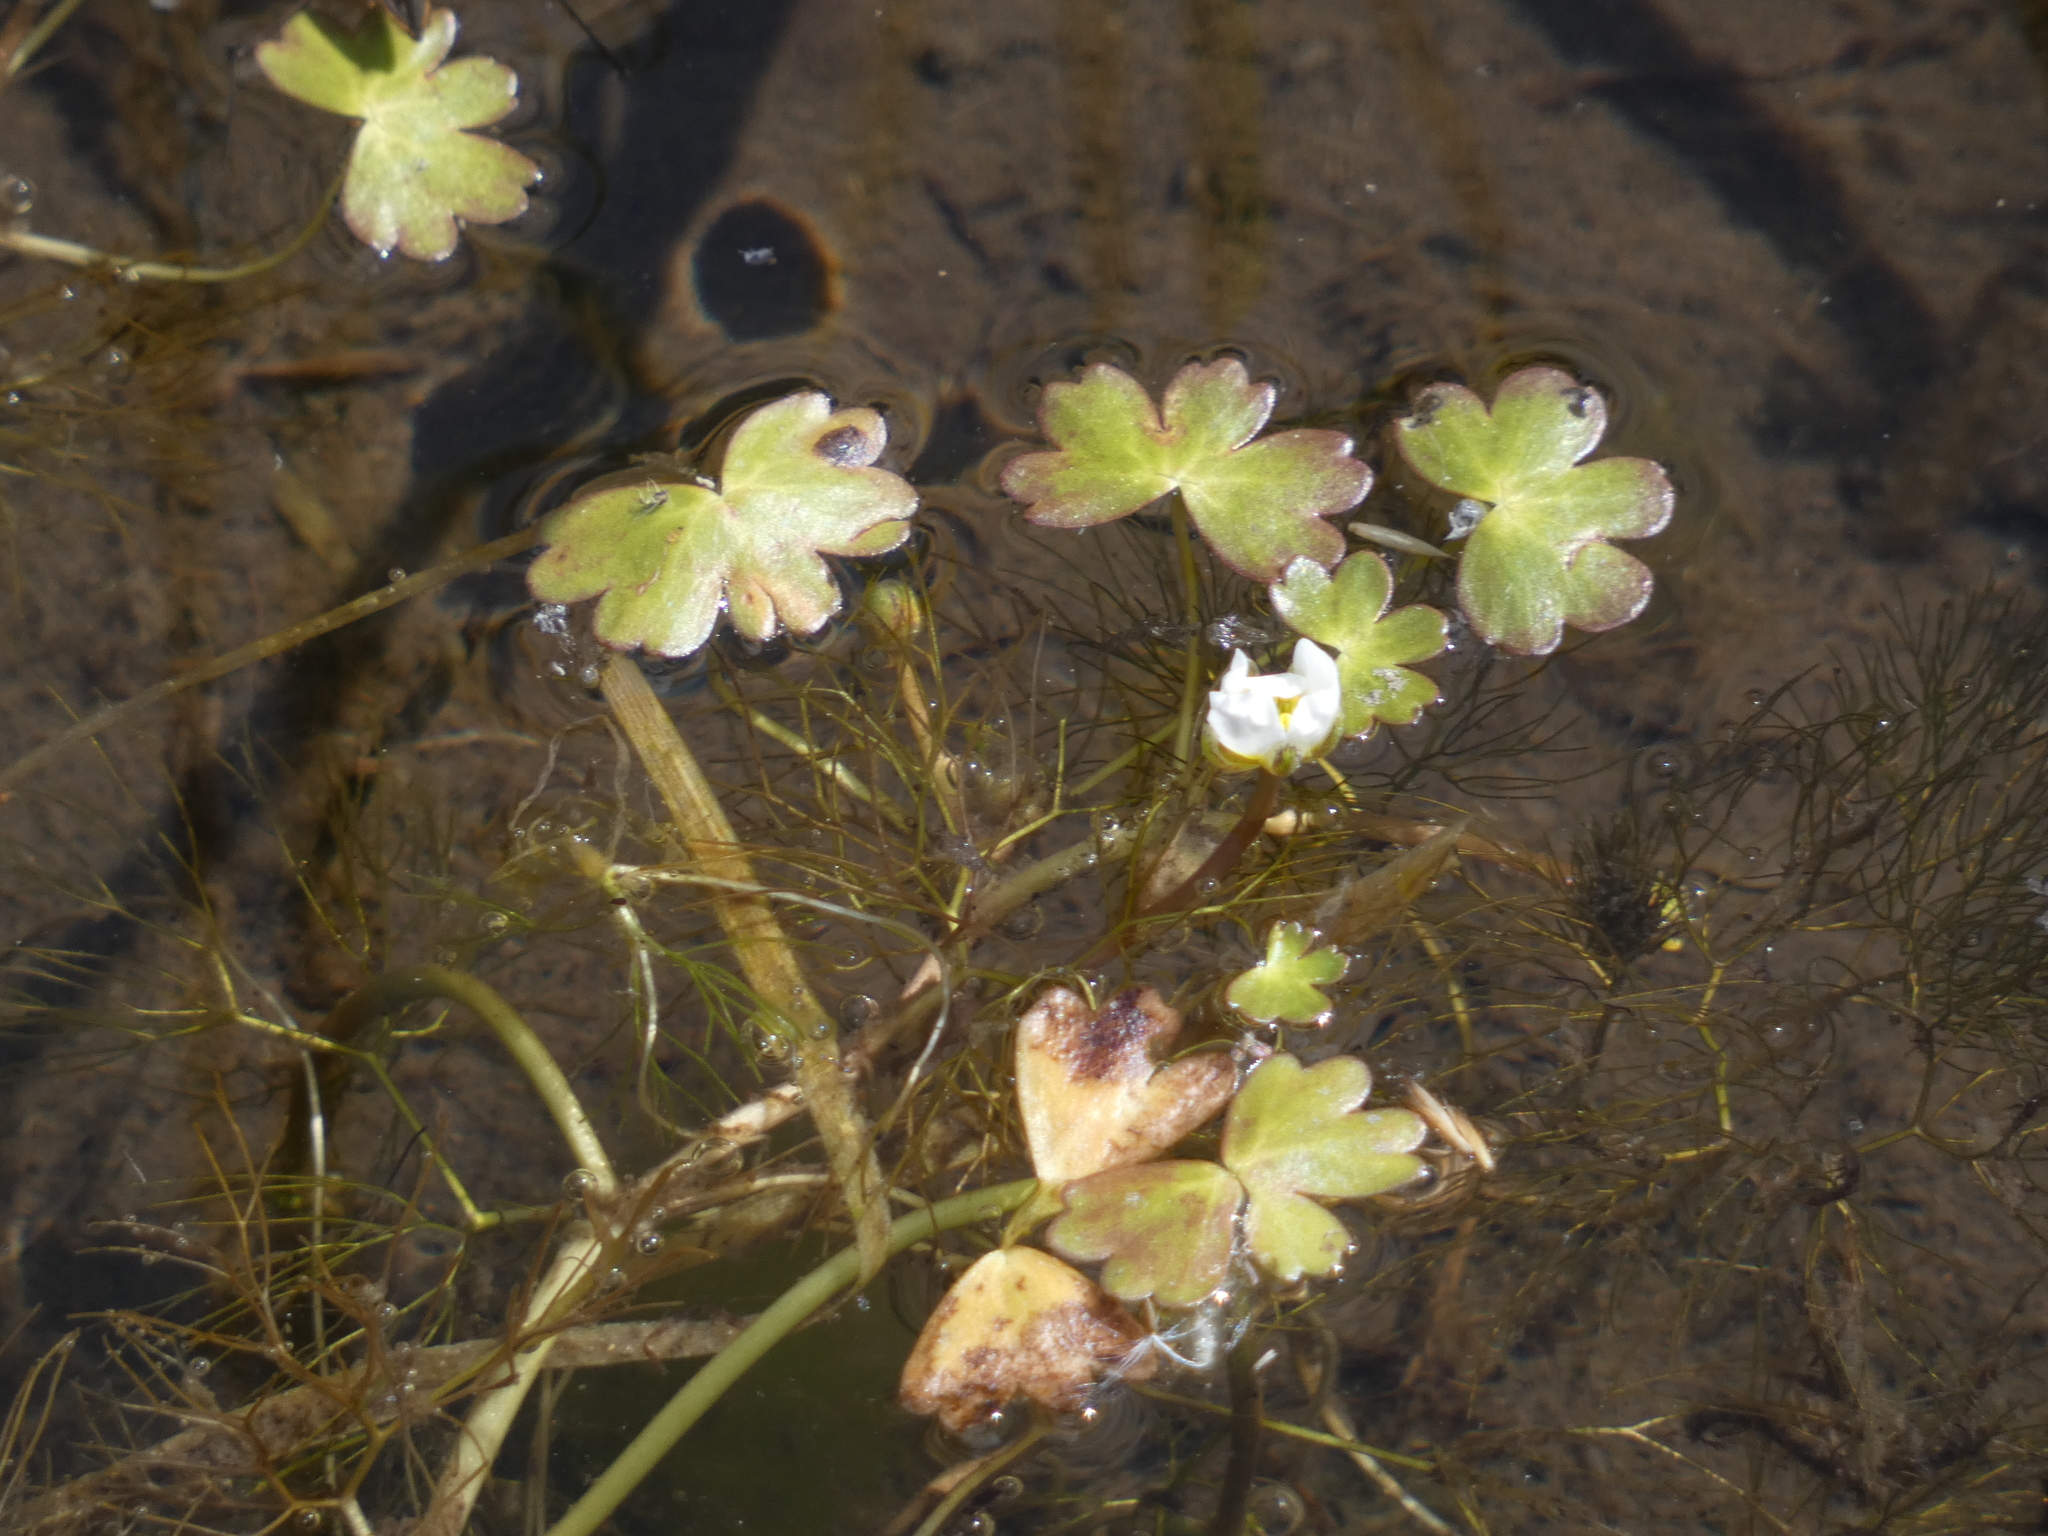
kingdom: Plantae
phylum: Tracheophyta
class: Magnoliopsida
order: Ranunculales
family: Ranunculaceae
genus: Ranunculus
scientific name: Ranunculus peltatus
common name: Pond water-crowfoot
